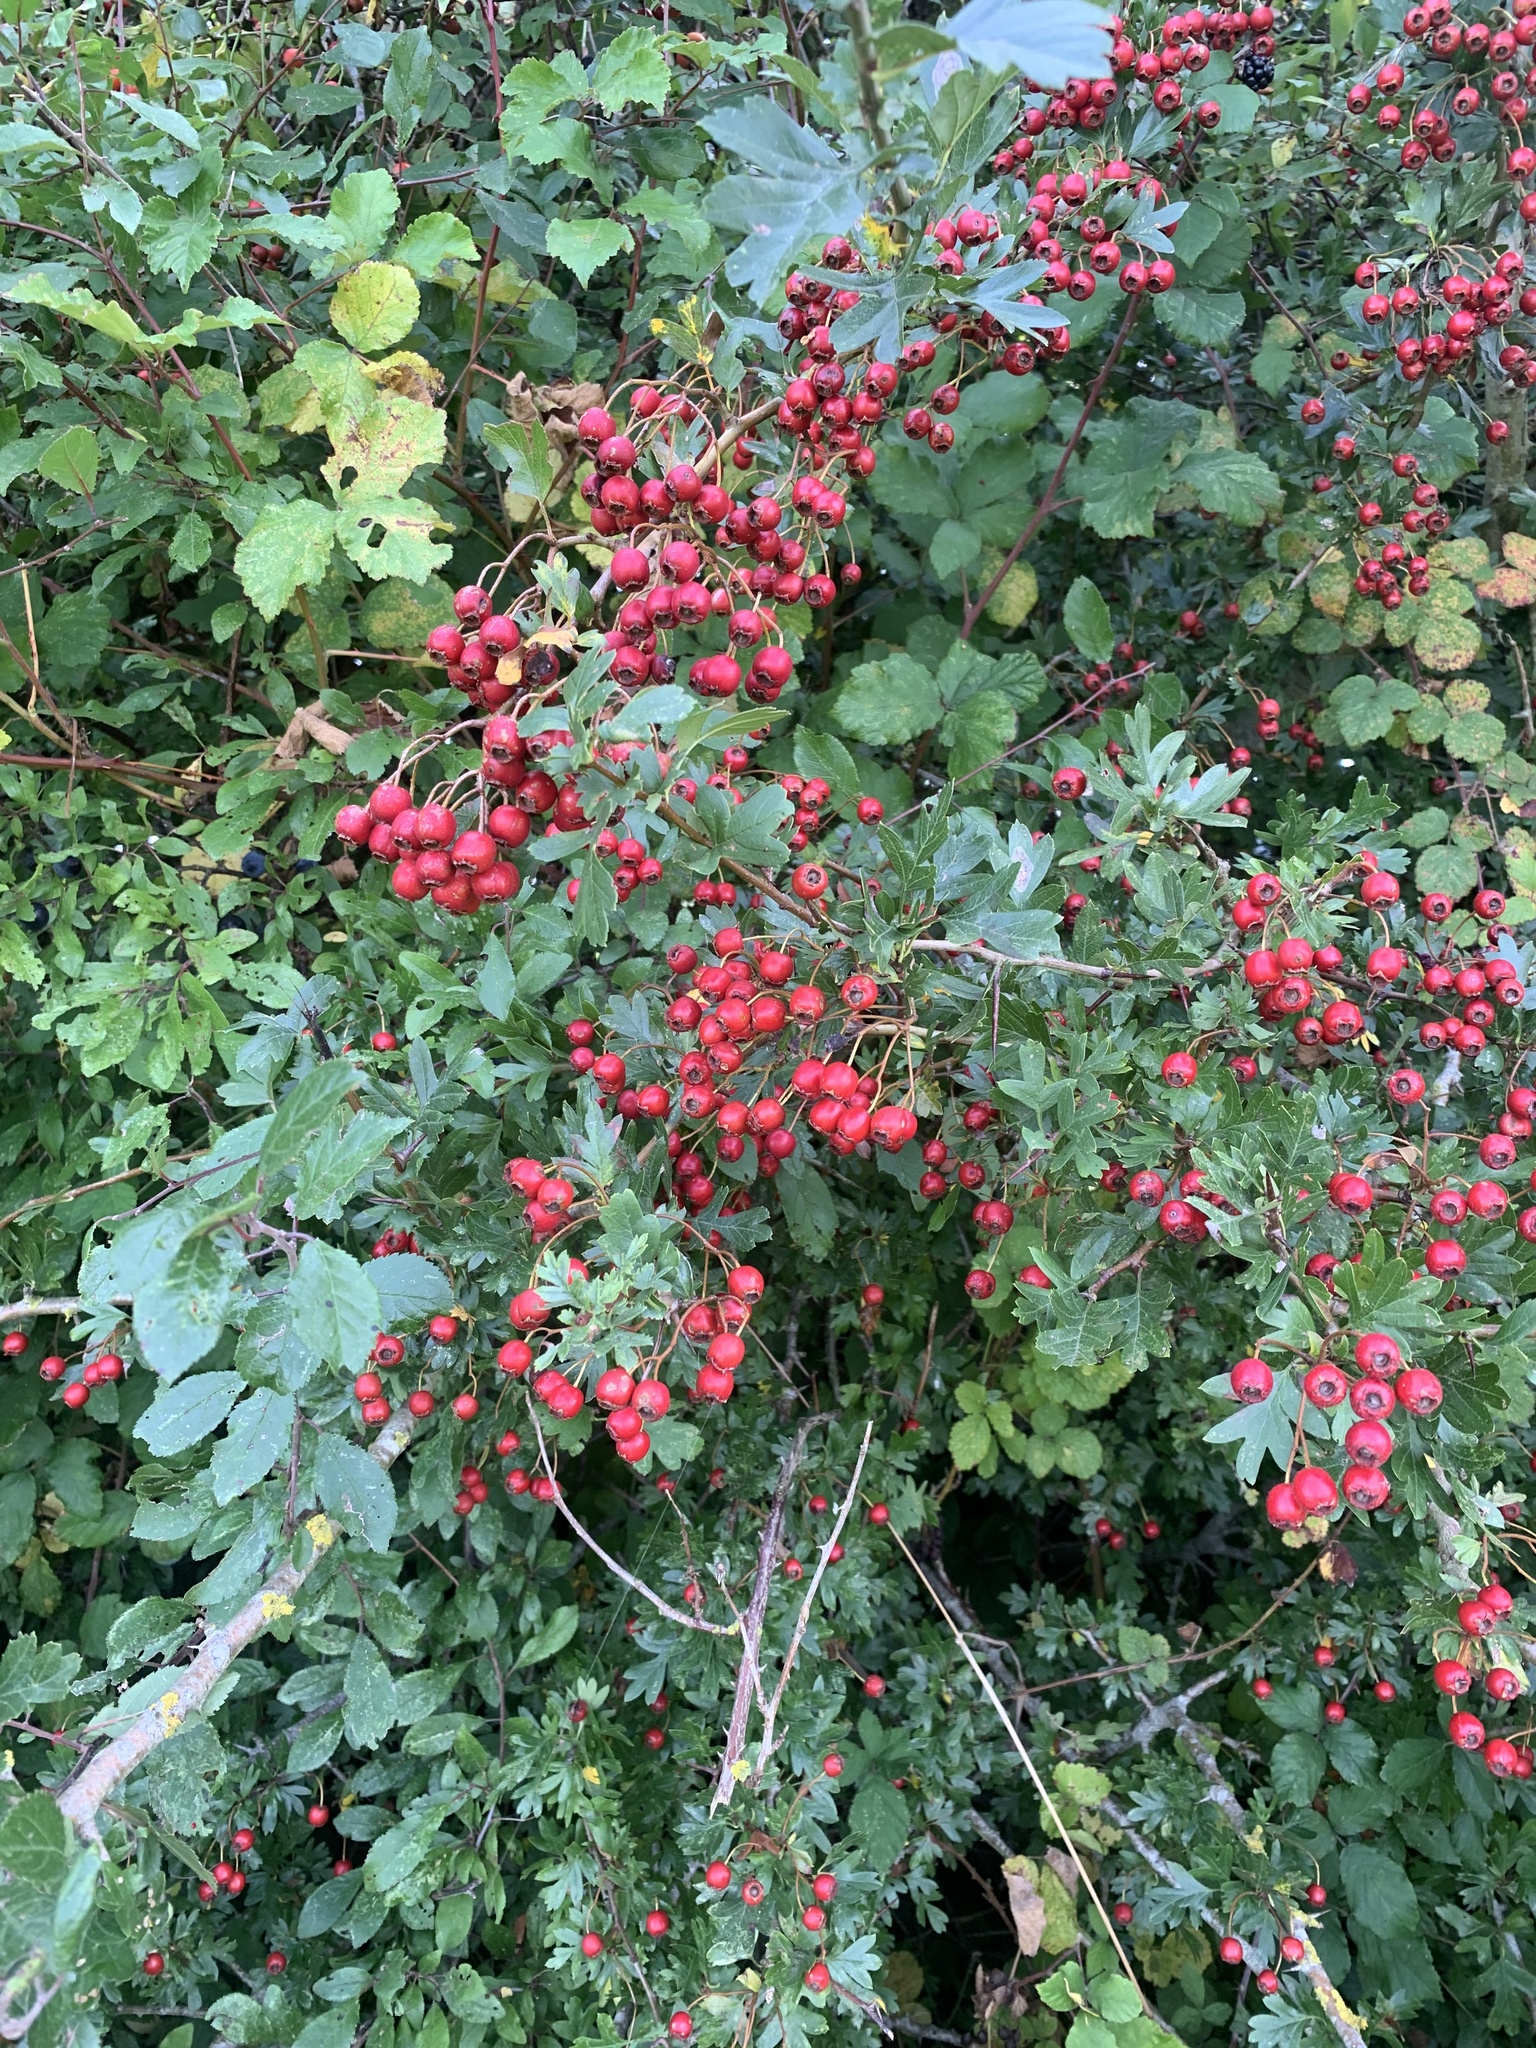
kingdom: Plantae
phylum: Tracheophyta
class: Magnoliopsida
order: Rosales
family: Rosaceae
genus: Crataegus
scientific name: Crataegus monogyna
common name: Hawthorn
